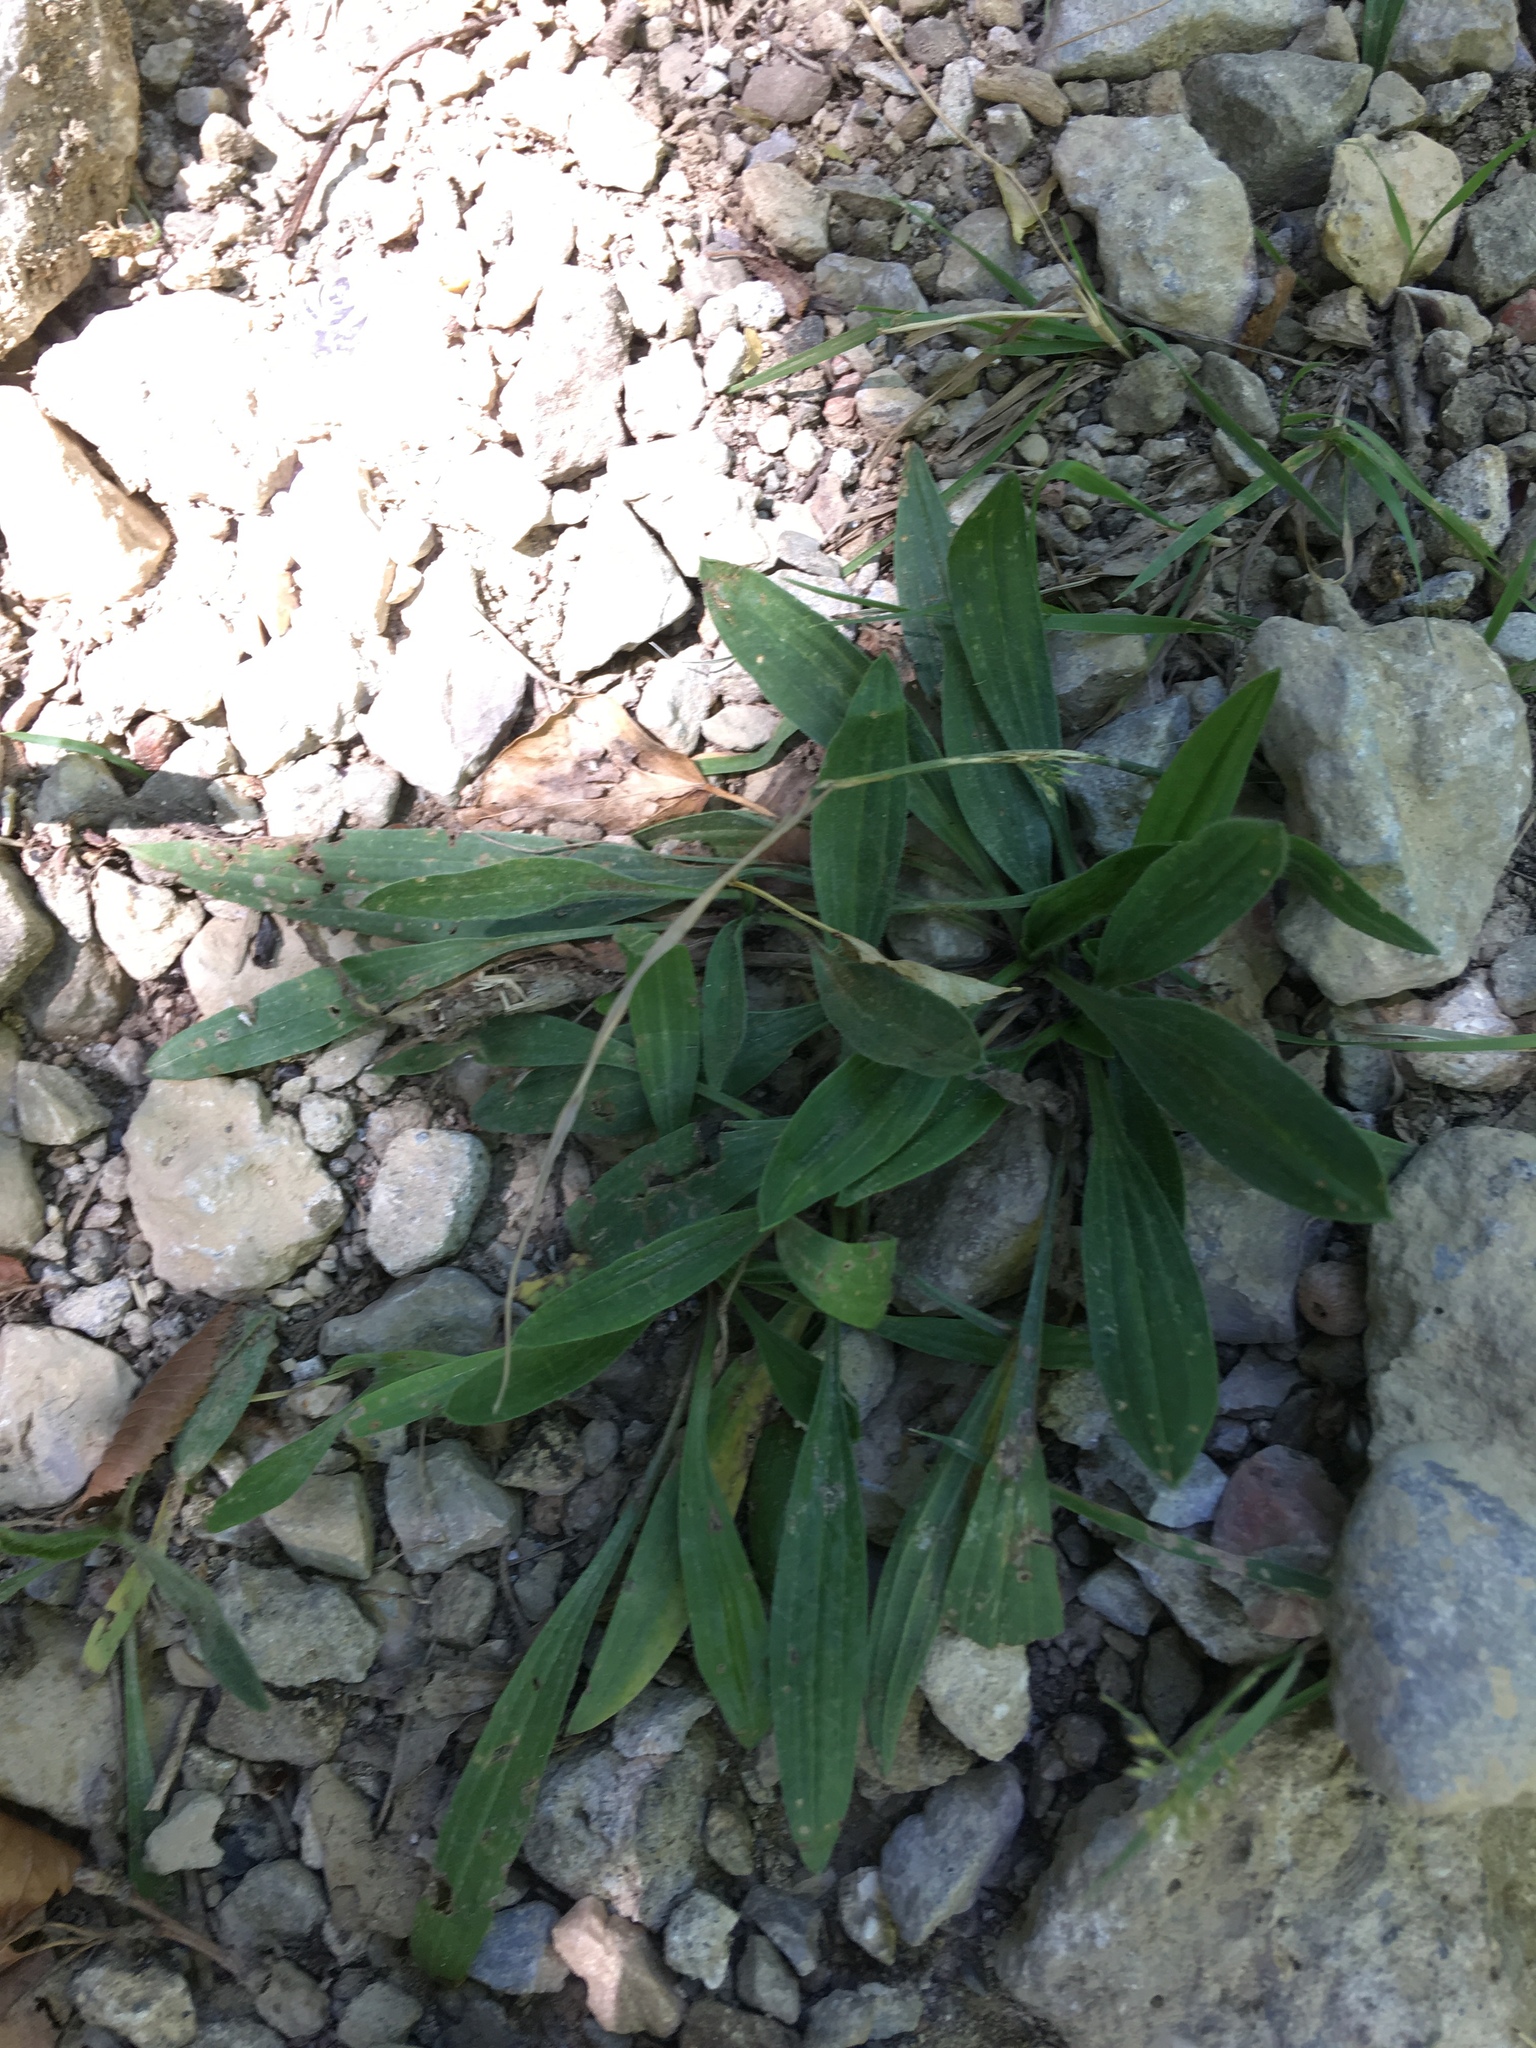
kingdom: Plantae
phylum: Tracheophyta
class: Magnoliopsida
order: Lamiales
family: Plantaginaceae
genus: Plantago
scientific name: Plantago lanceolata
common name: Ribwort plantain
